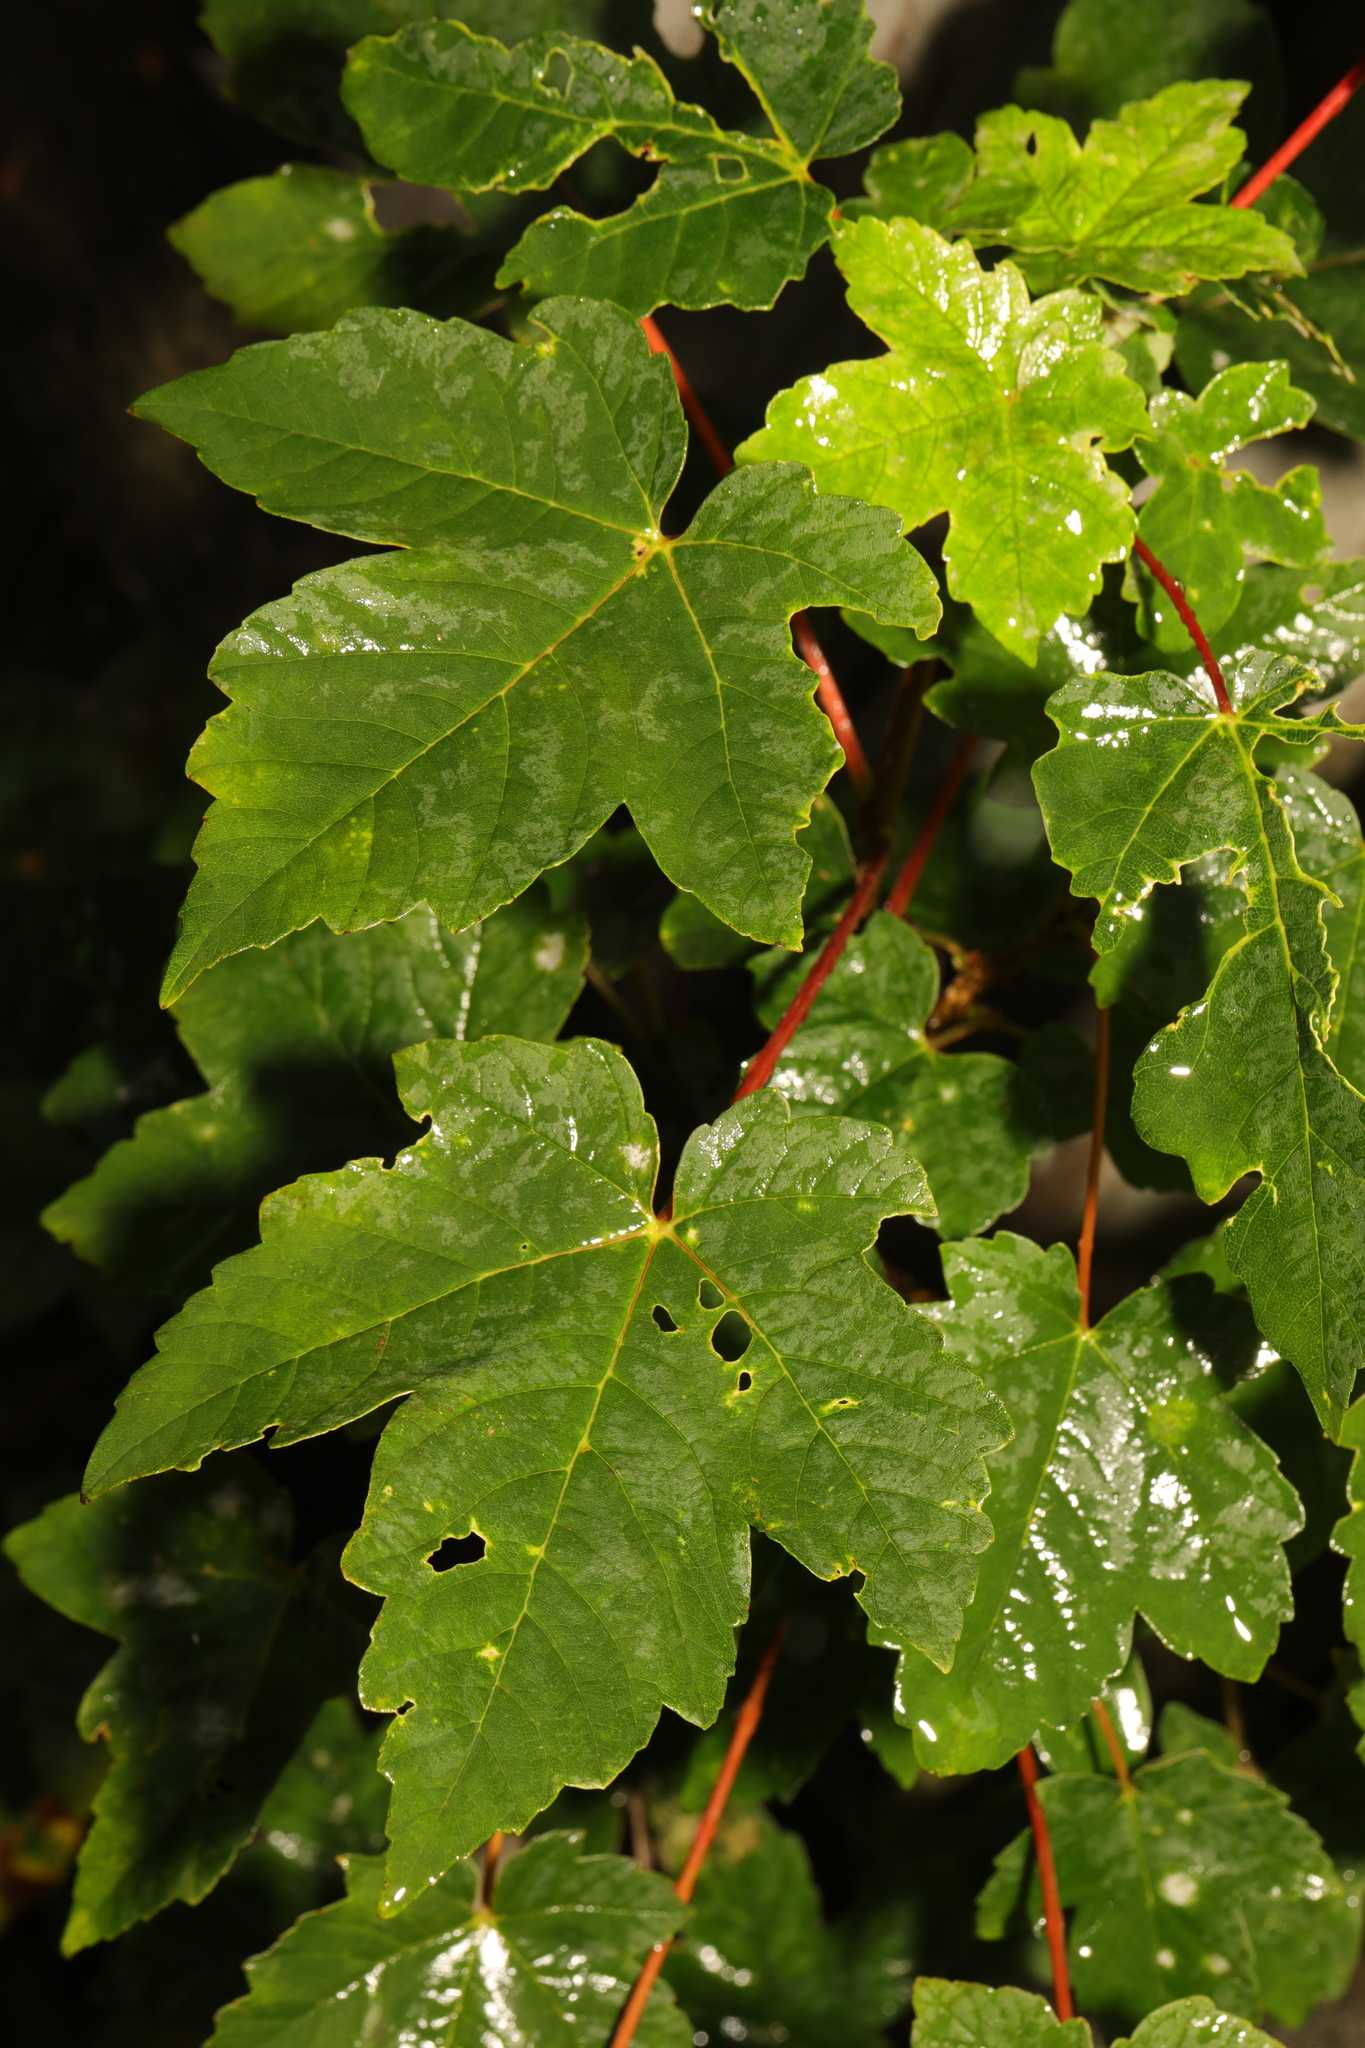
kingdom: Plantae
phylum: Tracheophyta
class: Magnoliopsida
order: Sapindales
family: Sapindaceae
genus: Acer
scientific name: Acer pseudoplatanus
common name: Sycamore
